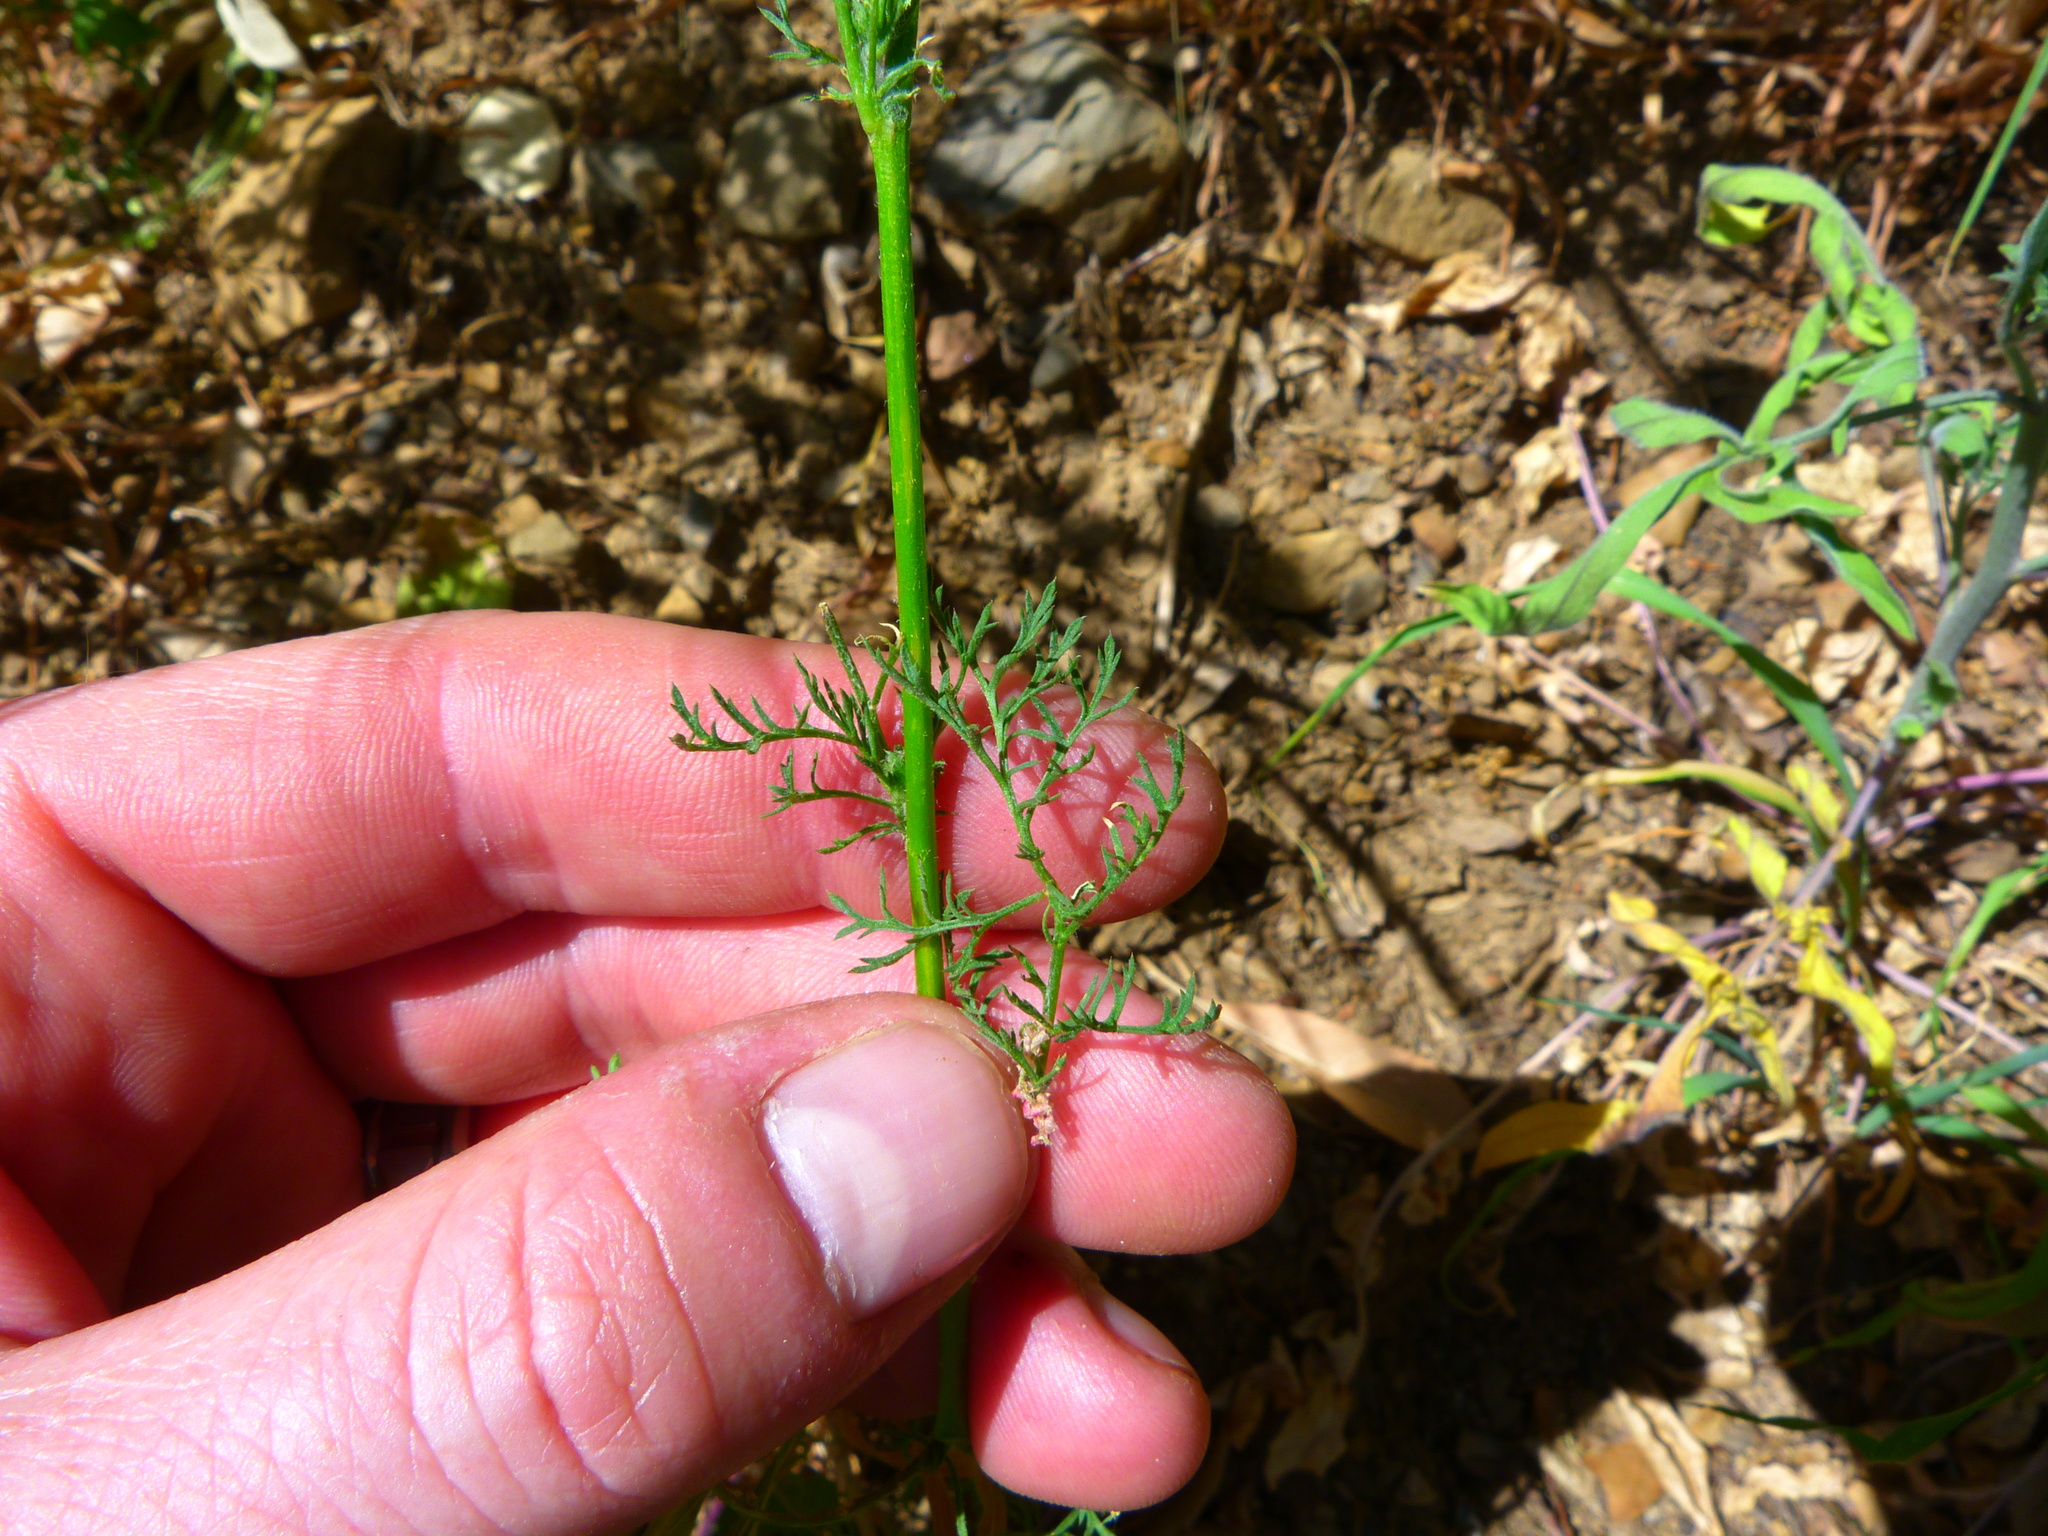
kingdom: Plantae
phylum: Tracheophyta
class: Magnoliopsida
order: Ericales
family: Polemoniaceae
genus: Gilia
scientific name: Gilia capitata
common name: Bluehead gilia
